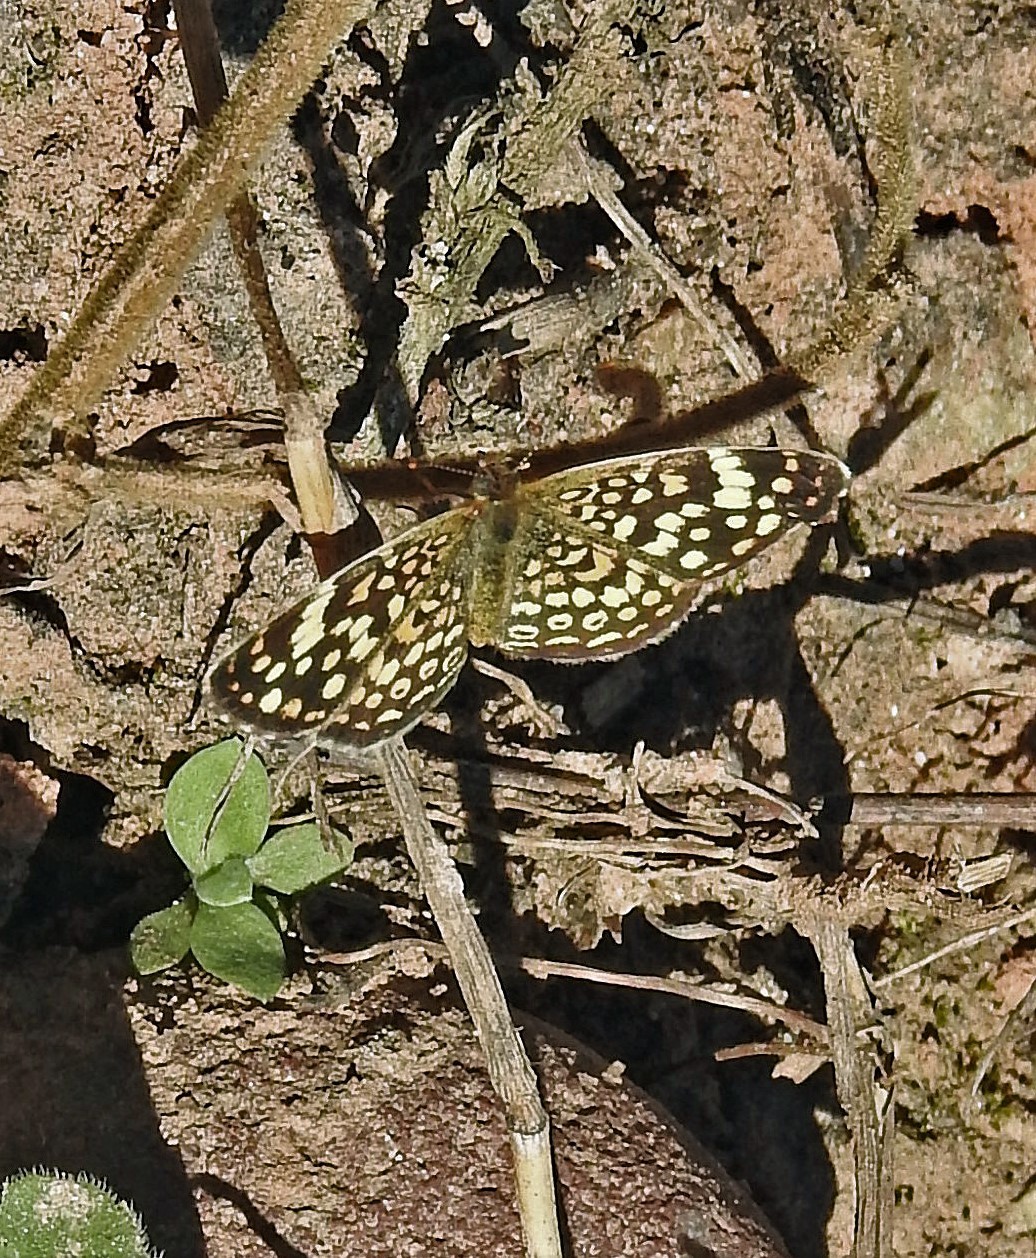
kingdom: Animalia
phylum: Arthropoda
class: Insecta
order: Lepidoptera
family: Nymphalidae
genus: Phystis
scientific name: Phystis simois
